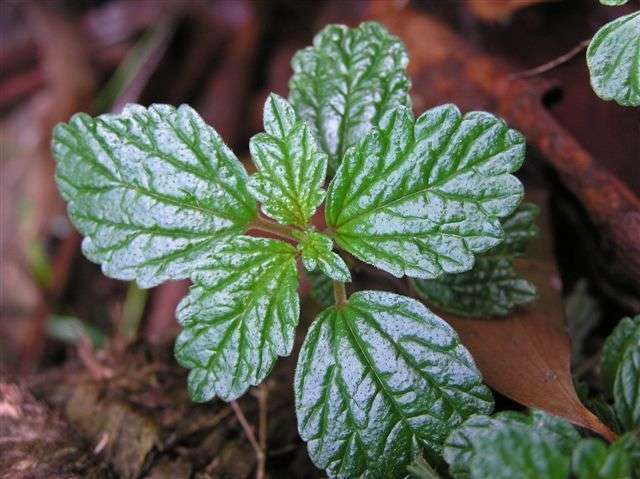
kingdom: Plantae
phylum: Tracheophyta
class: Magnoliopsida
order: Rosales
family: Urticaceae
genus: Australina
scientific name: Australina pusilla
